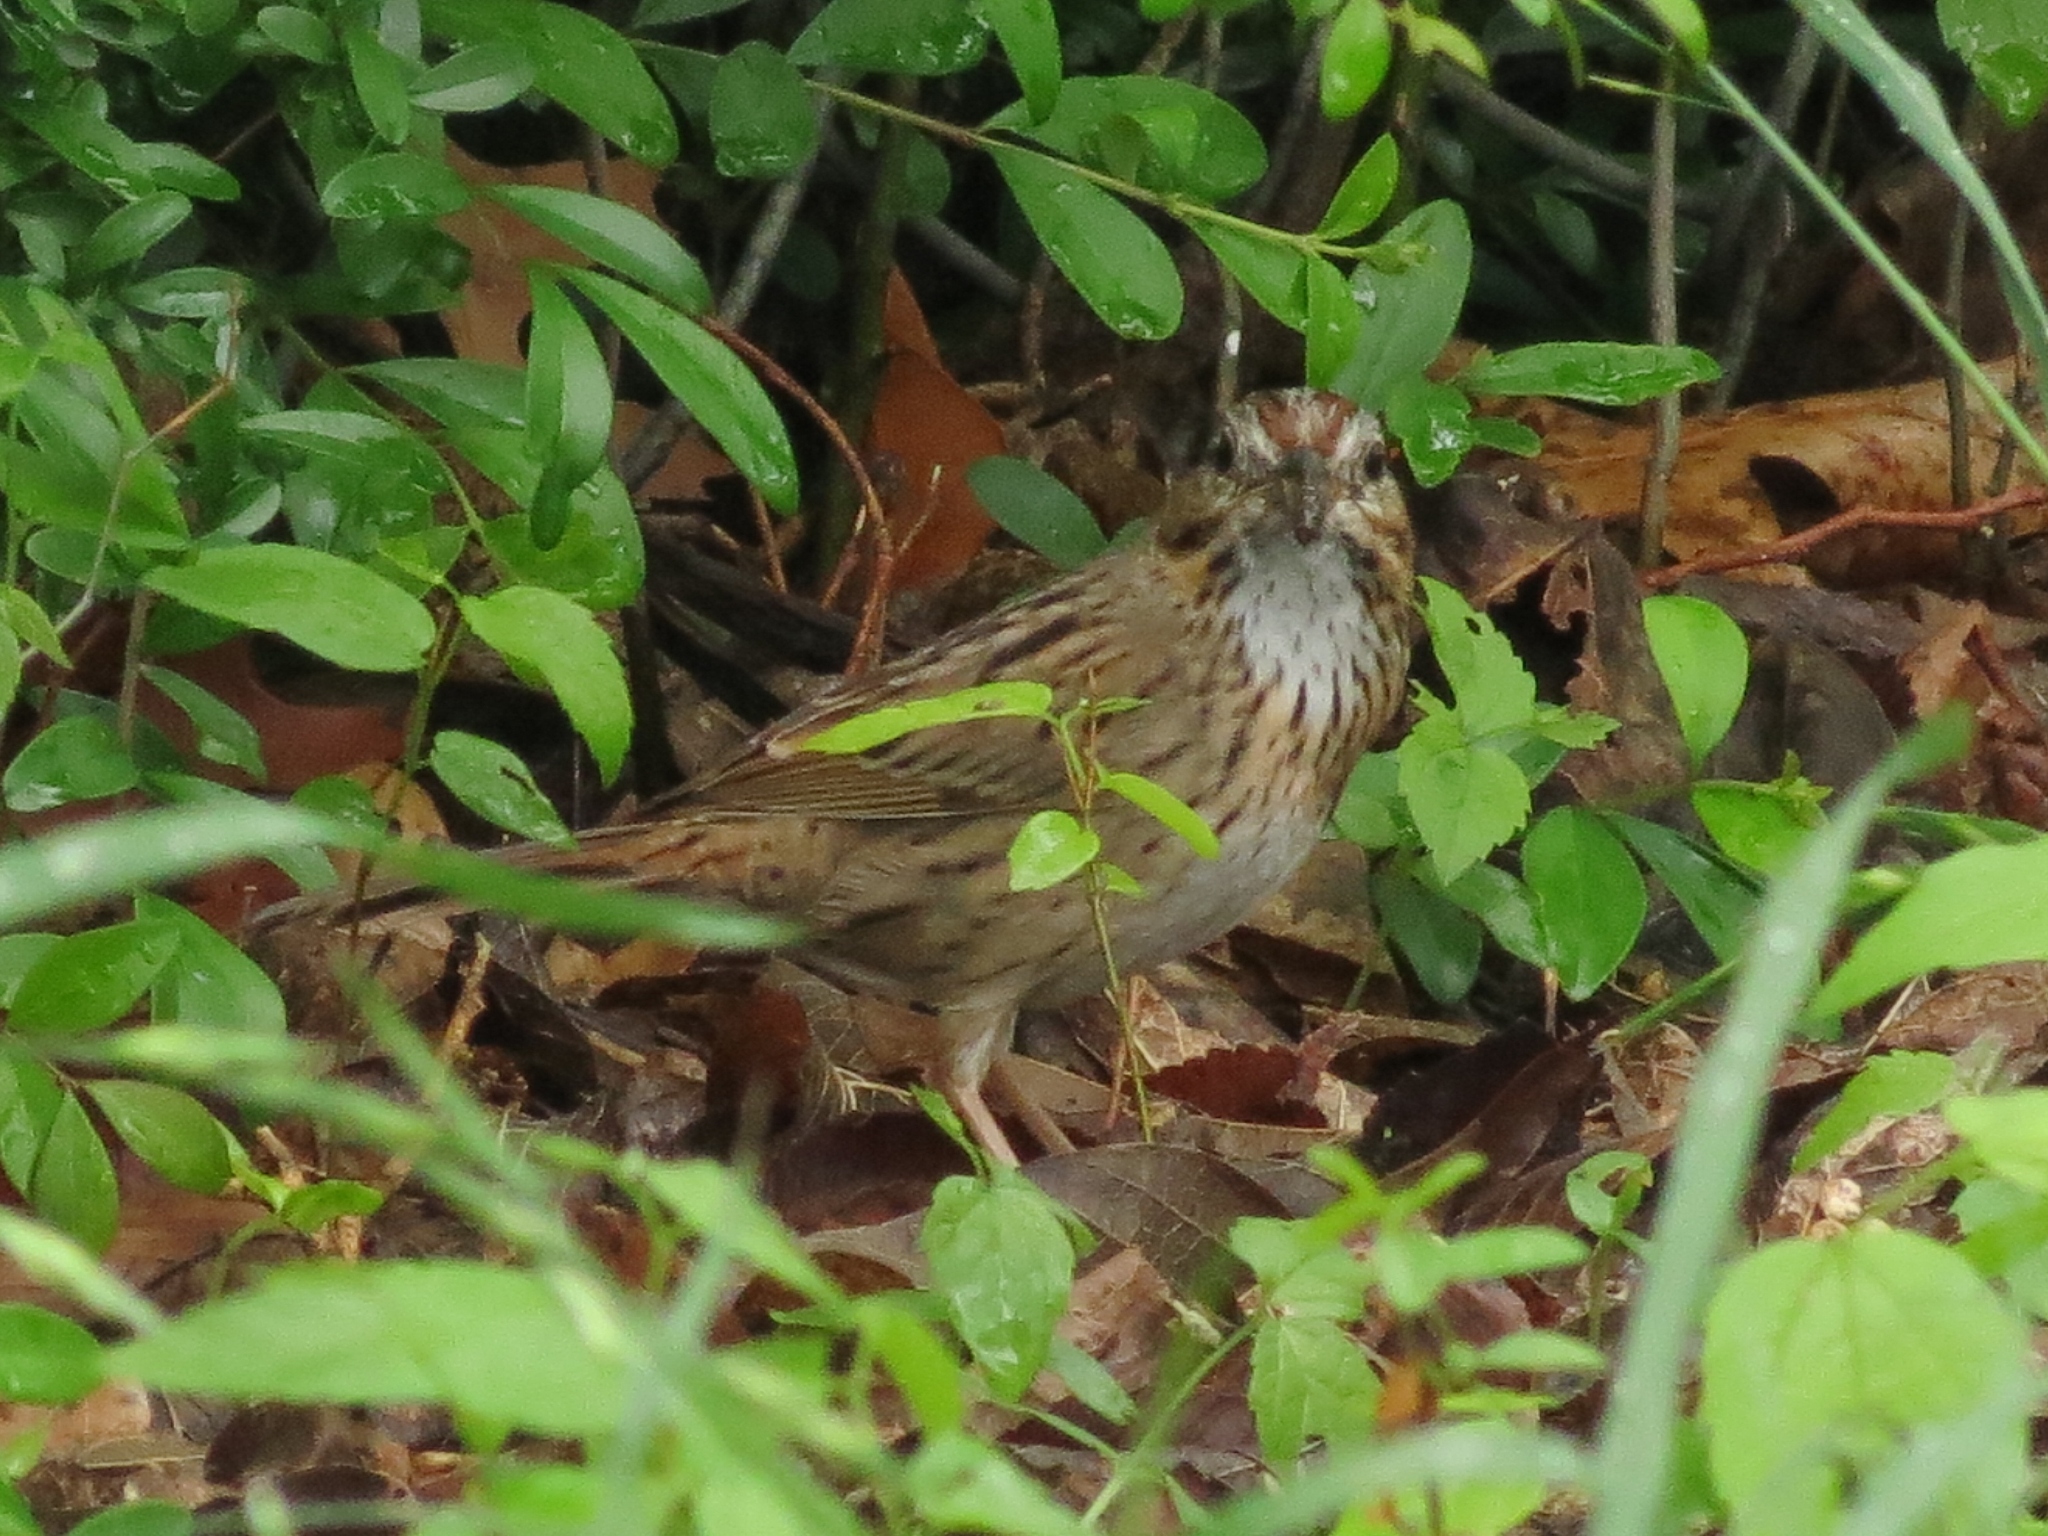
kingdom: Animalia
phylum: Chordata
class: Aves
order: Passeriformes
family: Passerellidae
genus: Melospiza
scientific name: Melospiza lincolnii
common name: Lincoln's sparrow
